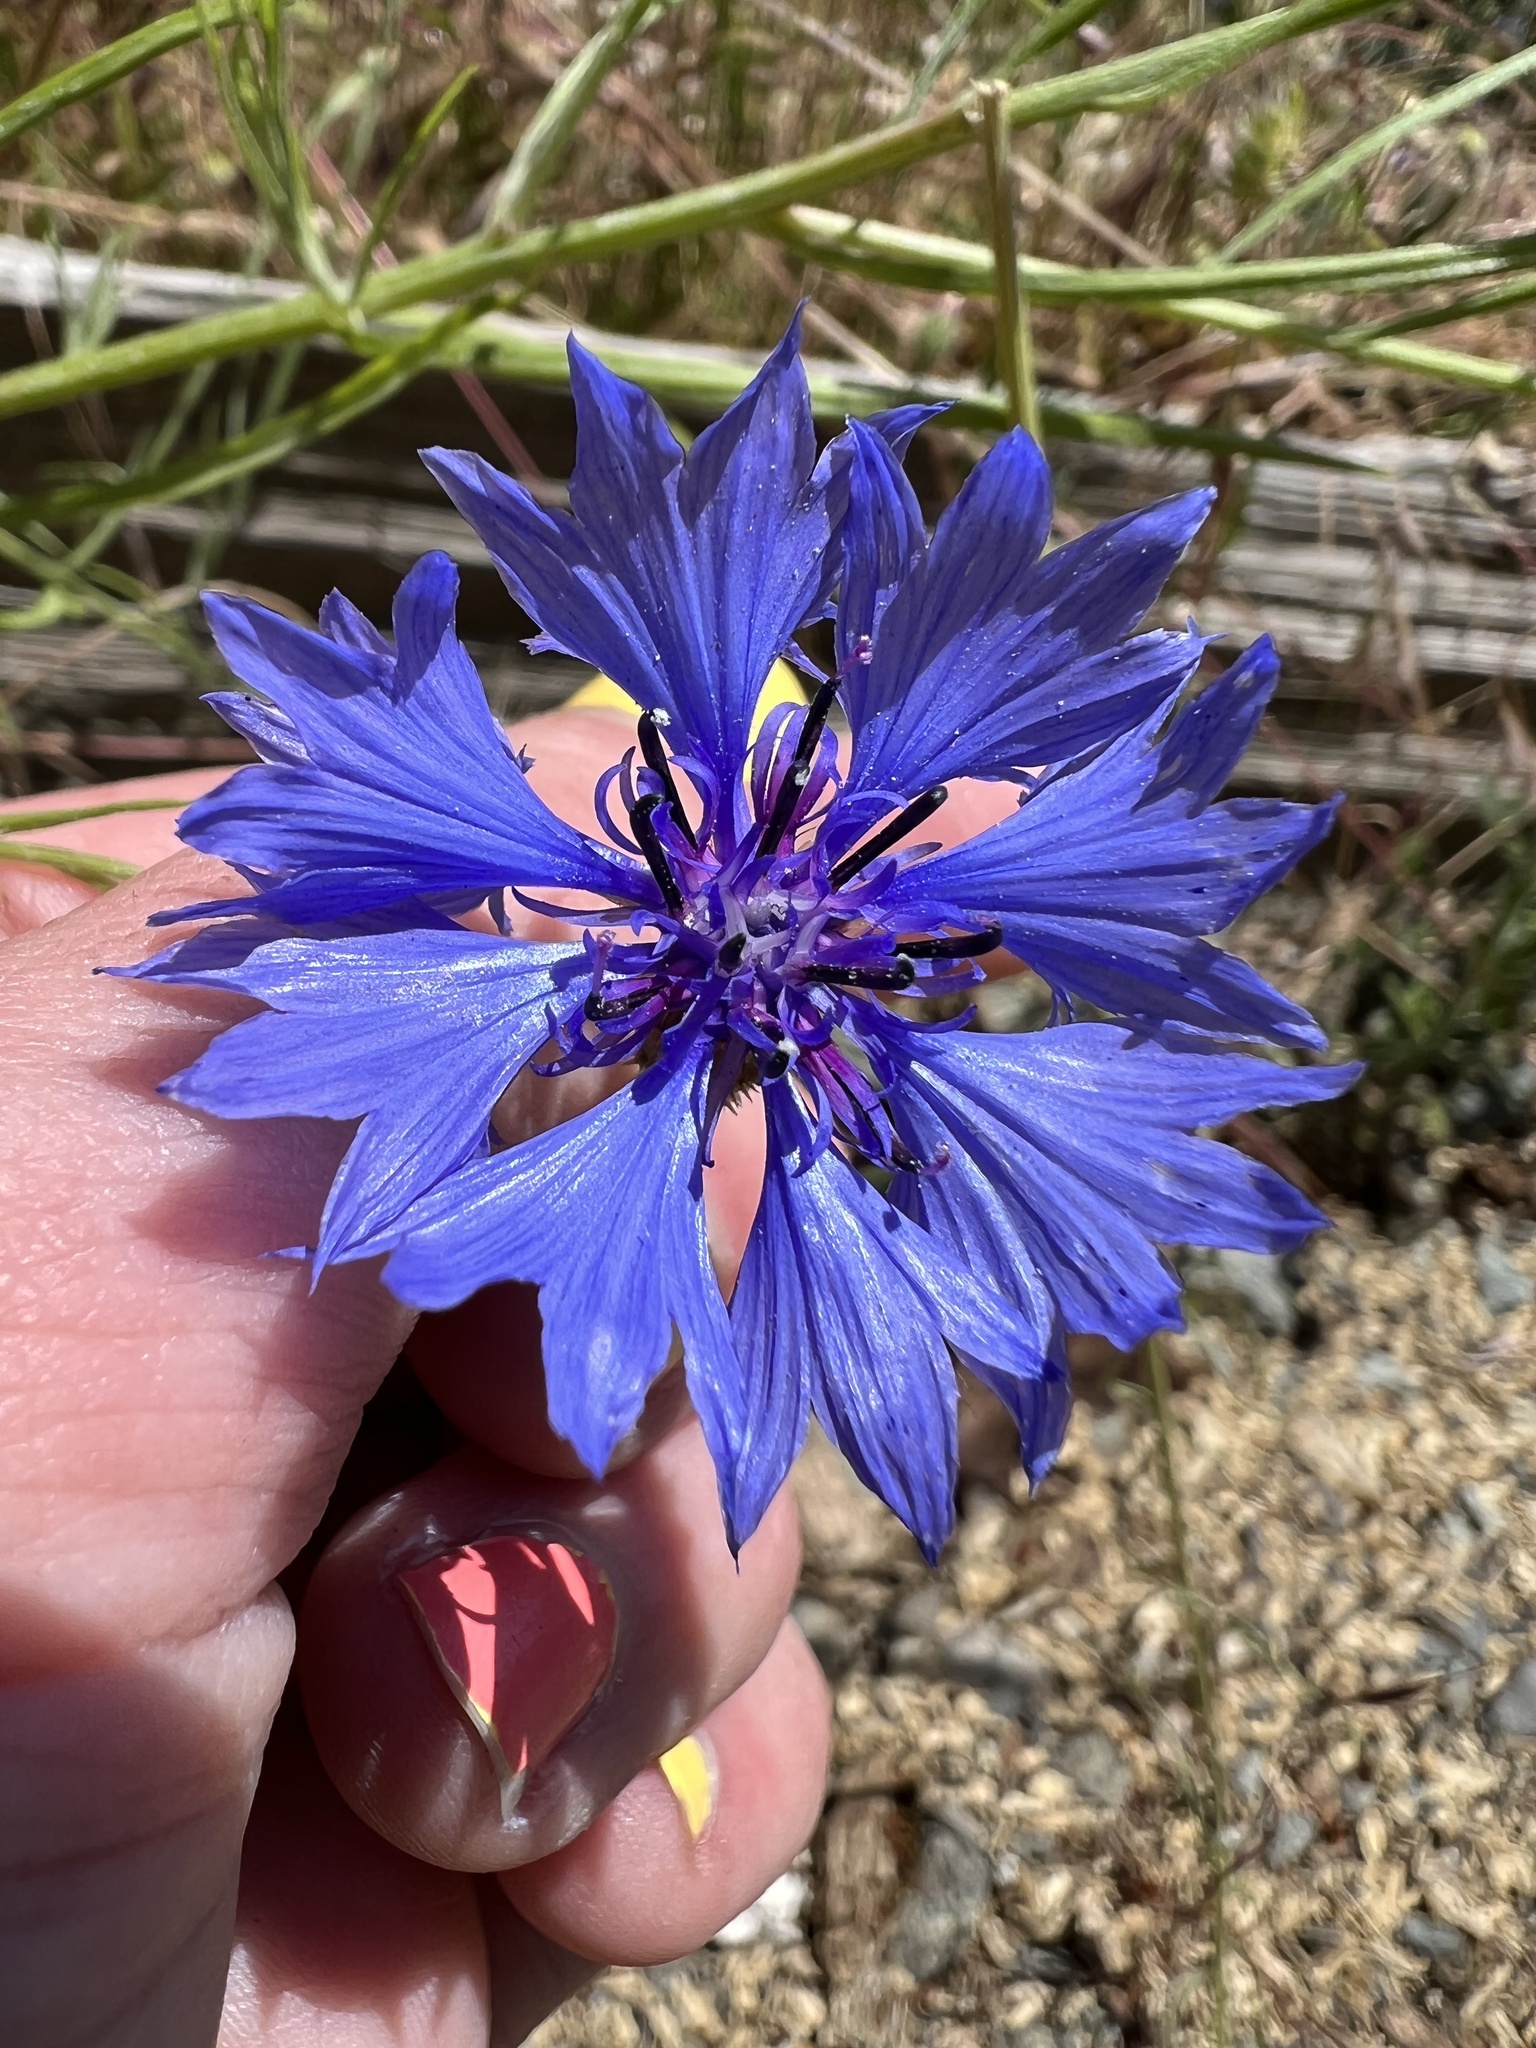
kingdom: Plantae
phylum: Tracheophyta
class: Magnoliopsida
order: Asterales
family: Asteraceae
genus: Centaurea
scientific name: Centaurea cyanus
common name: Cornflower
